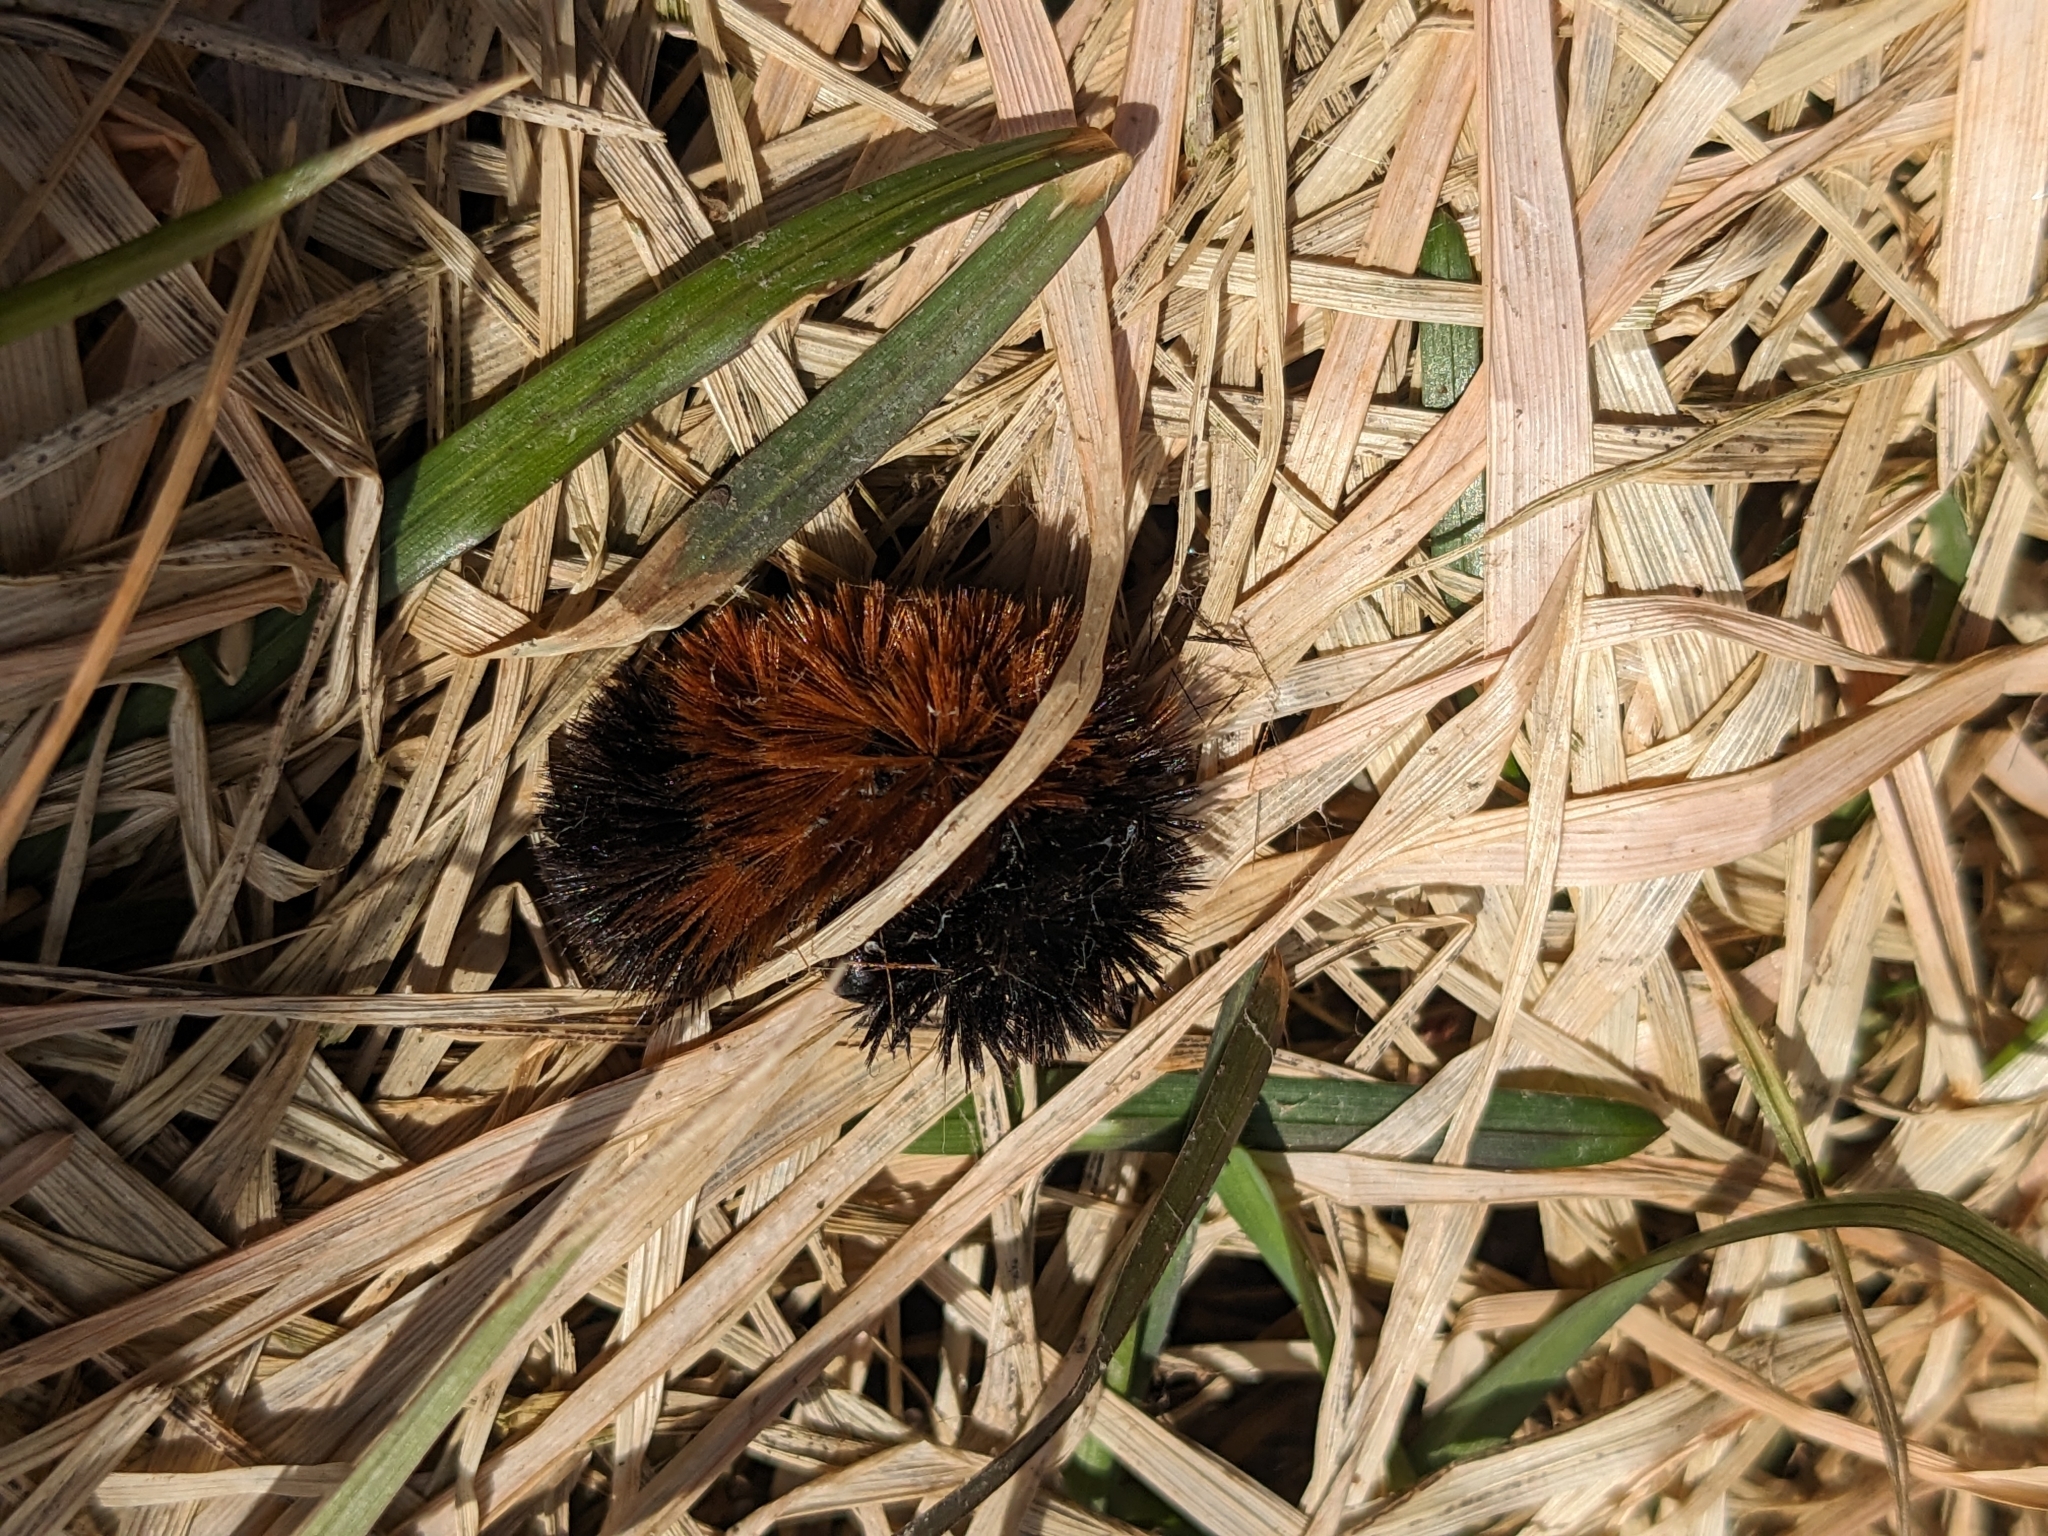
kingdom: Animalia
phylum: Arthropoda
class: Insecta
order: Lepidoptera
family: Erebidae
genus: Pyrrharctia
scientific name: Pyrrharctia isabella
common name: Isabella tiger moth
